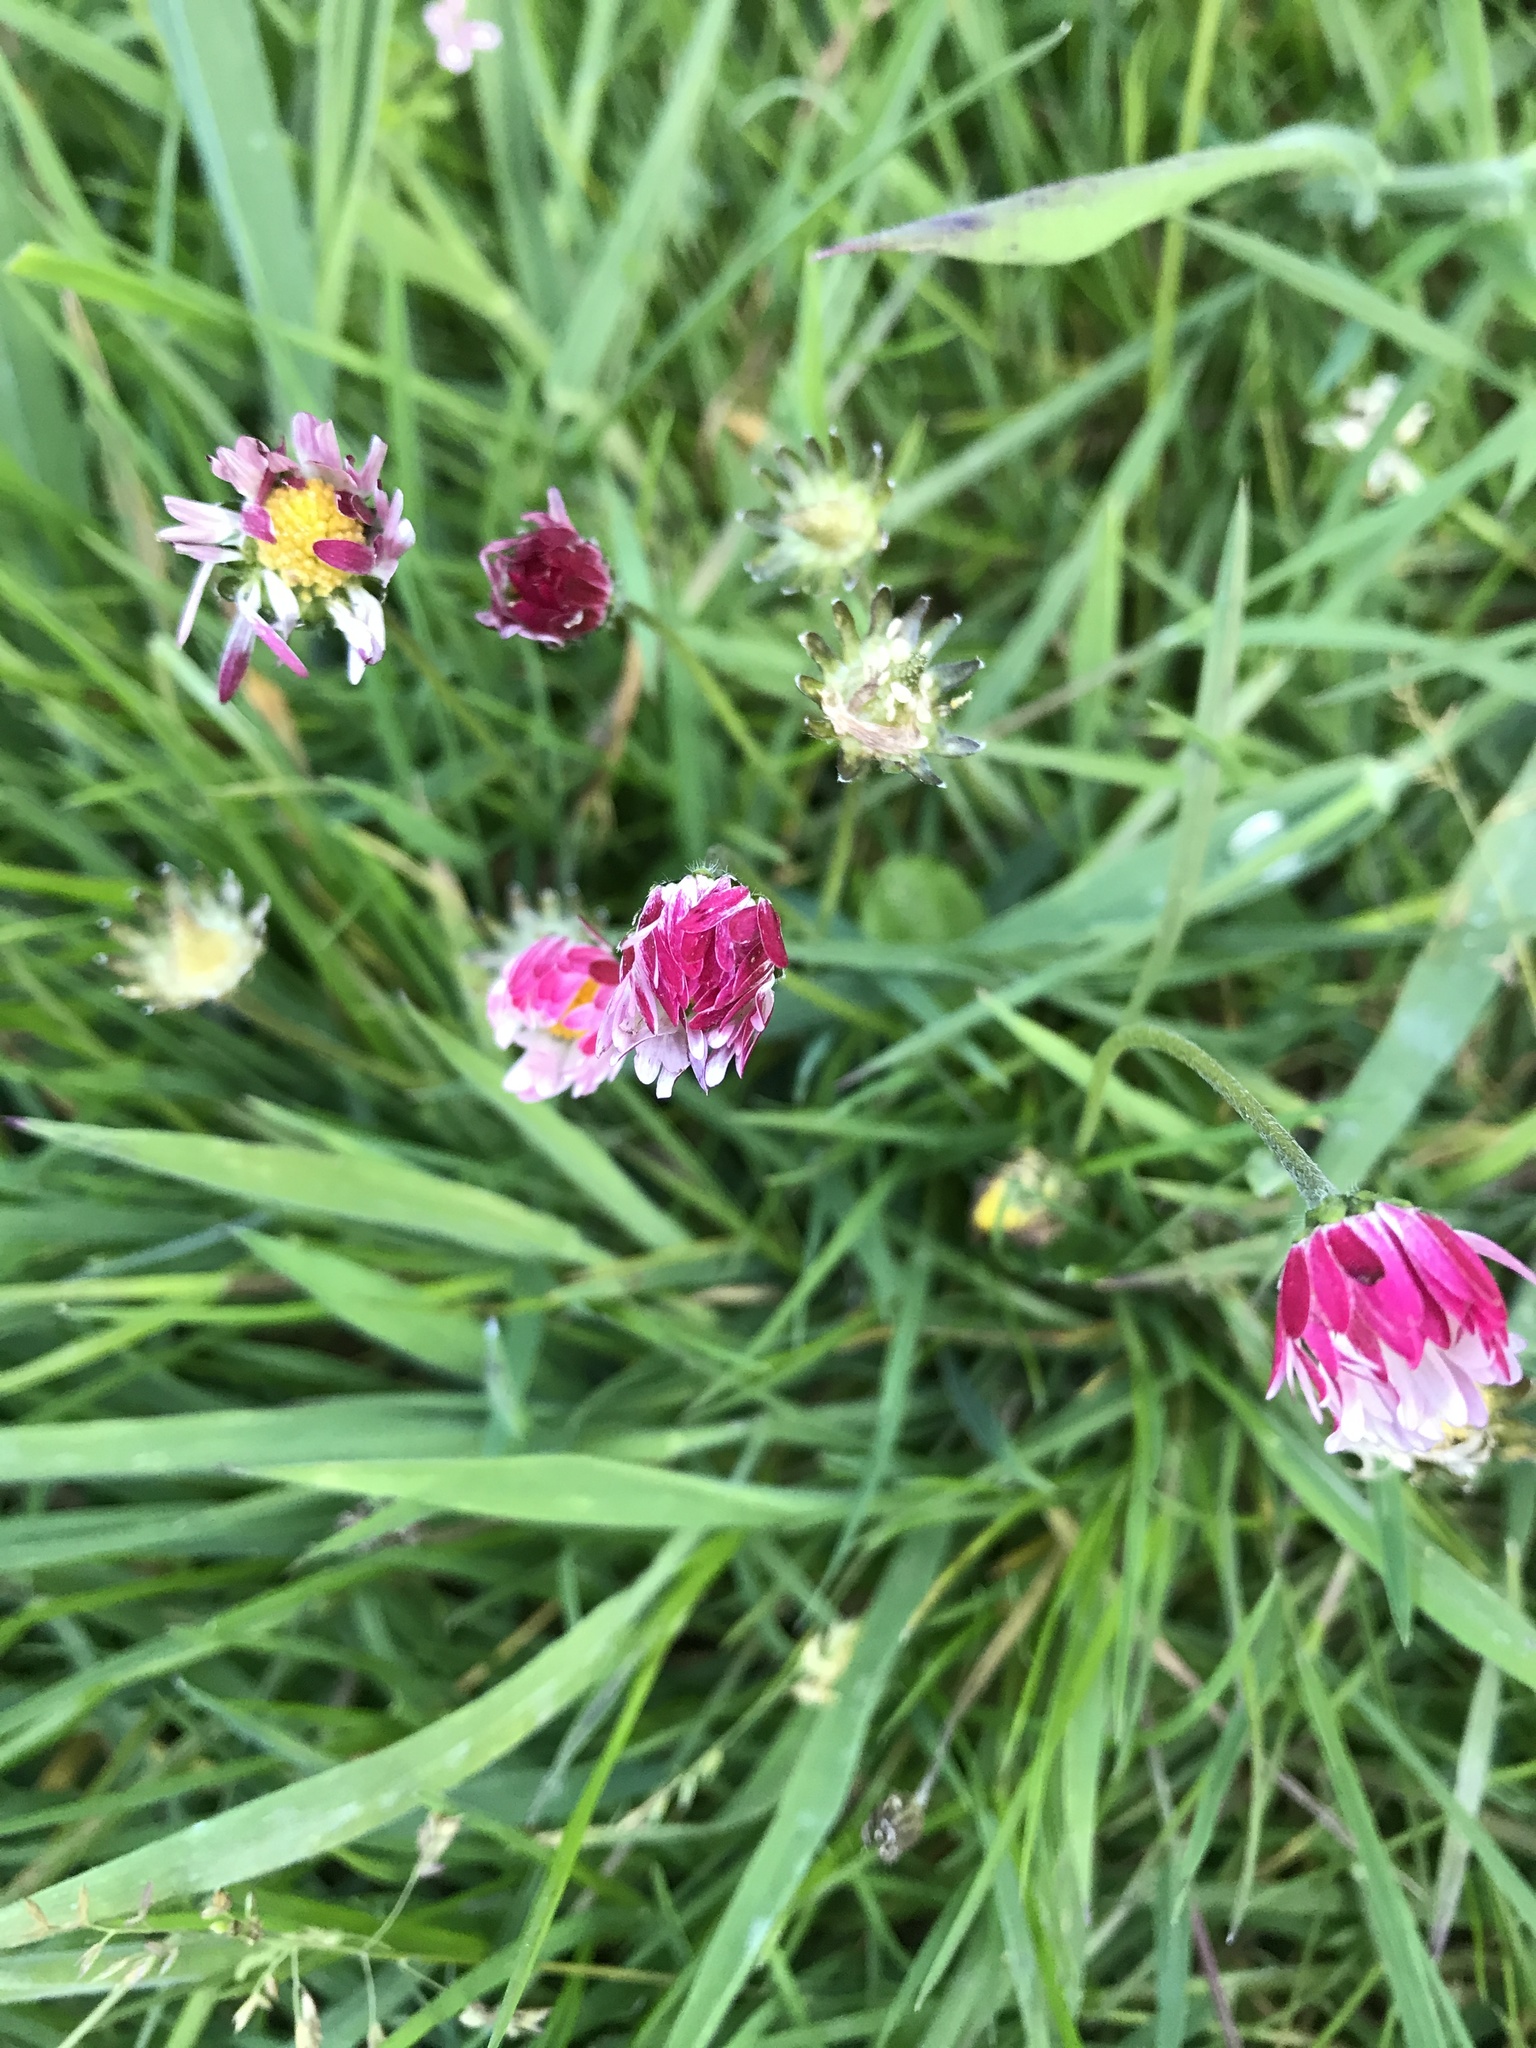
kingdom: Plantae
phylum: Tracheophyta
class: Magnoliopsida
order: Asterales
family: Asteraceae
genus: Bellis
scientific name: Bellis perennis
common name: Lawndaisy
